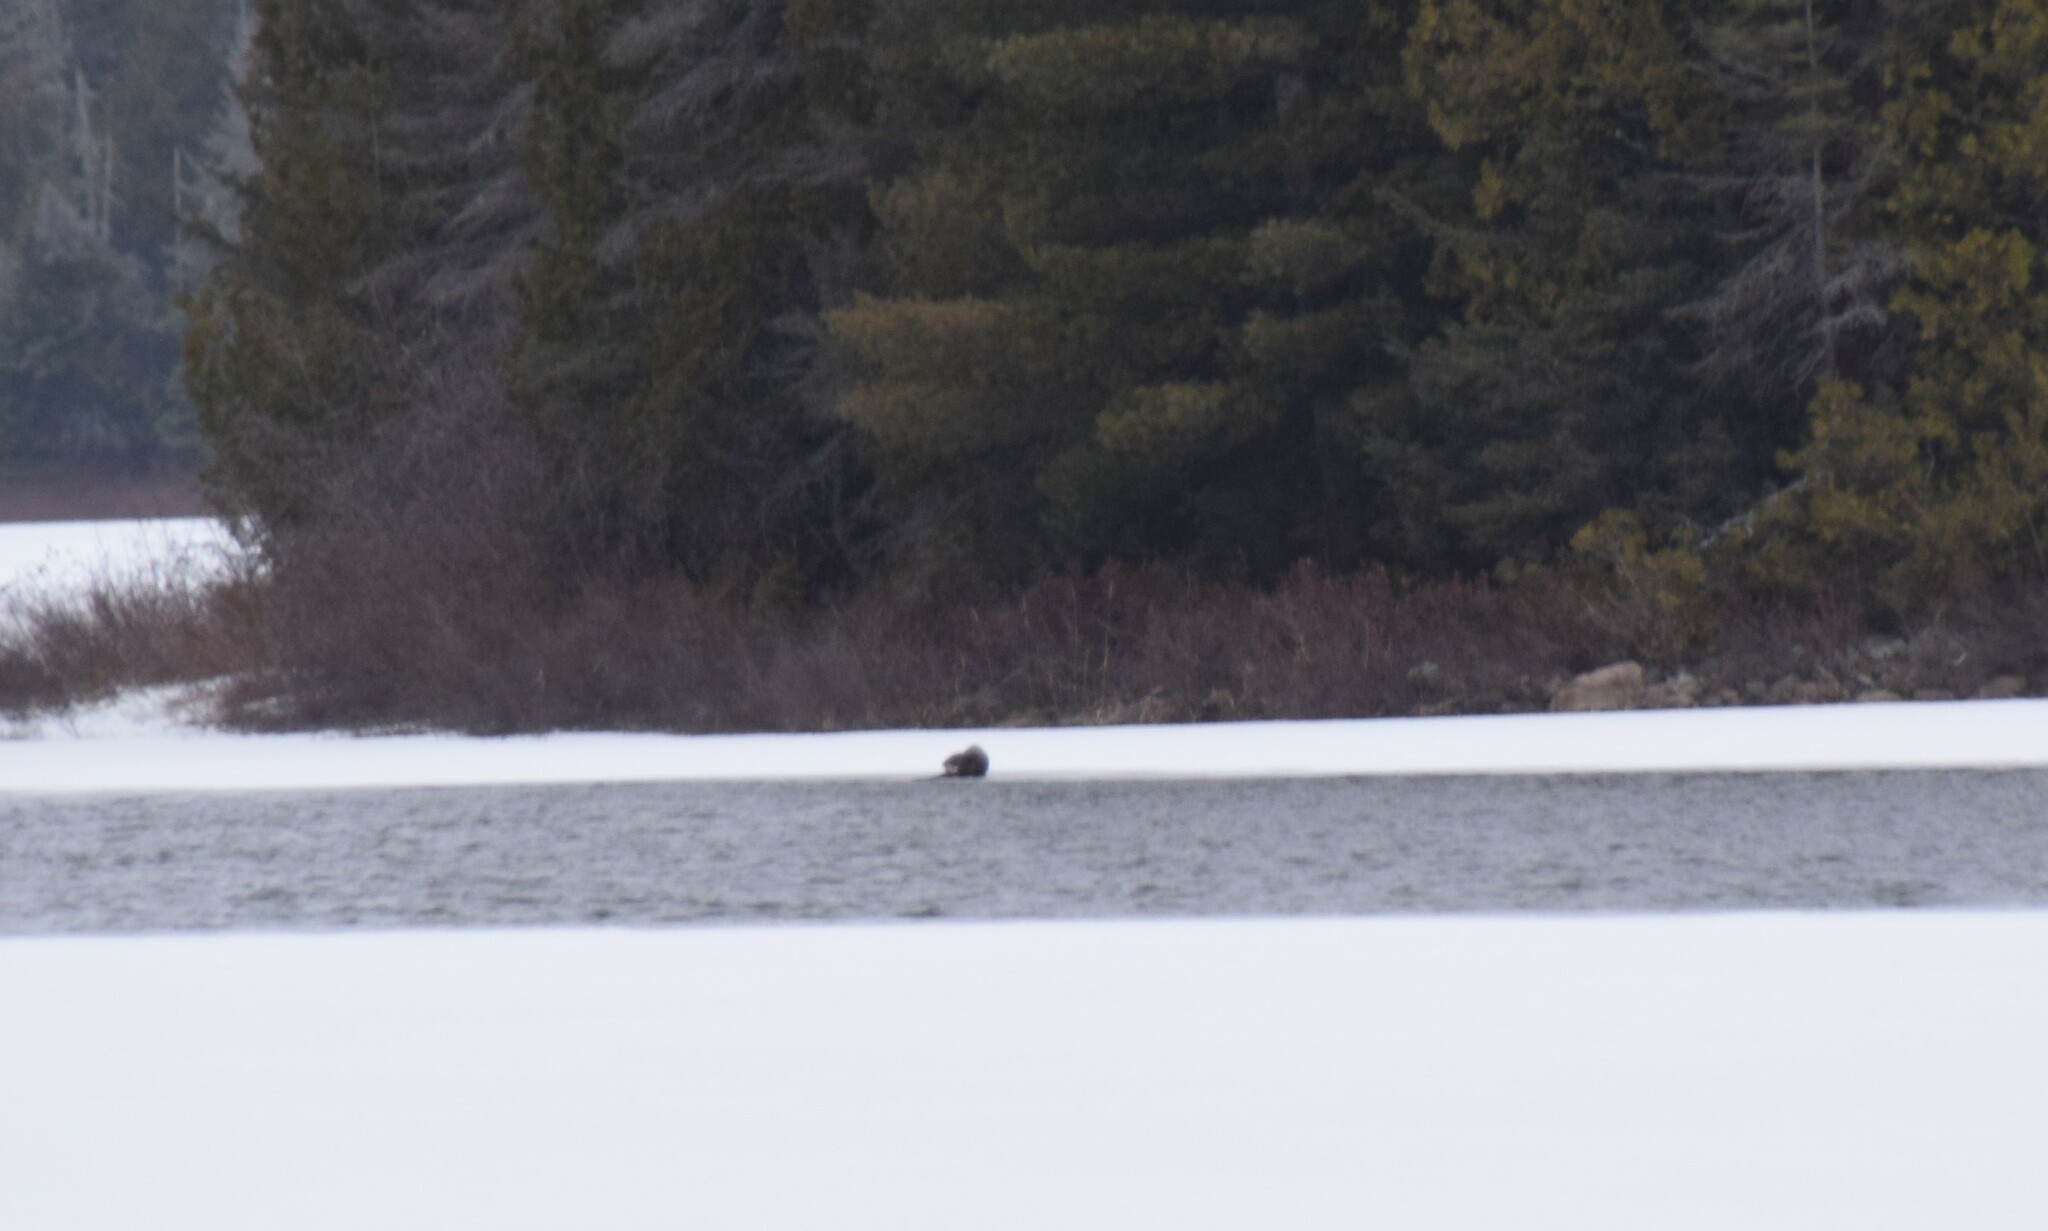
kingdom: Animalia
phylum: Chordata
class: Mammalia
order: Carnivora
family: Mustelidae
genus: Lontra
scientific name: Lontra canadensis
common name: North american river otter
